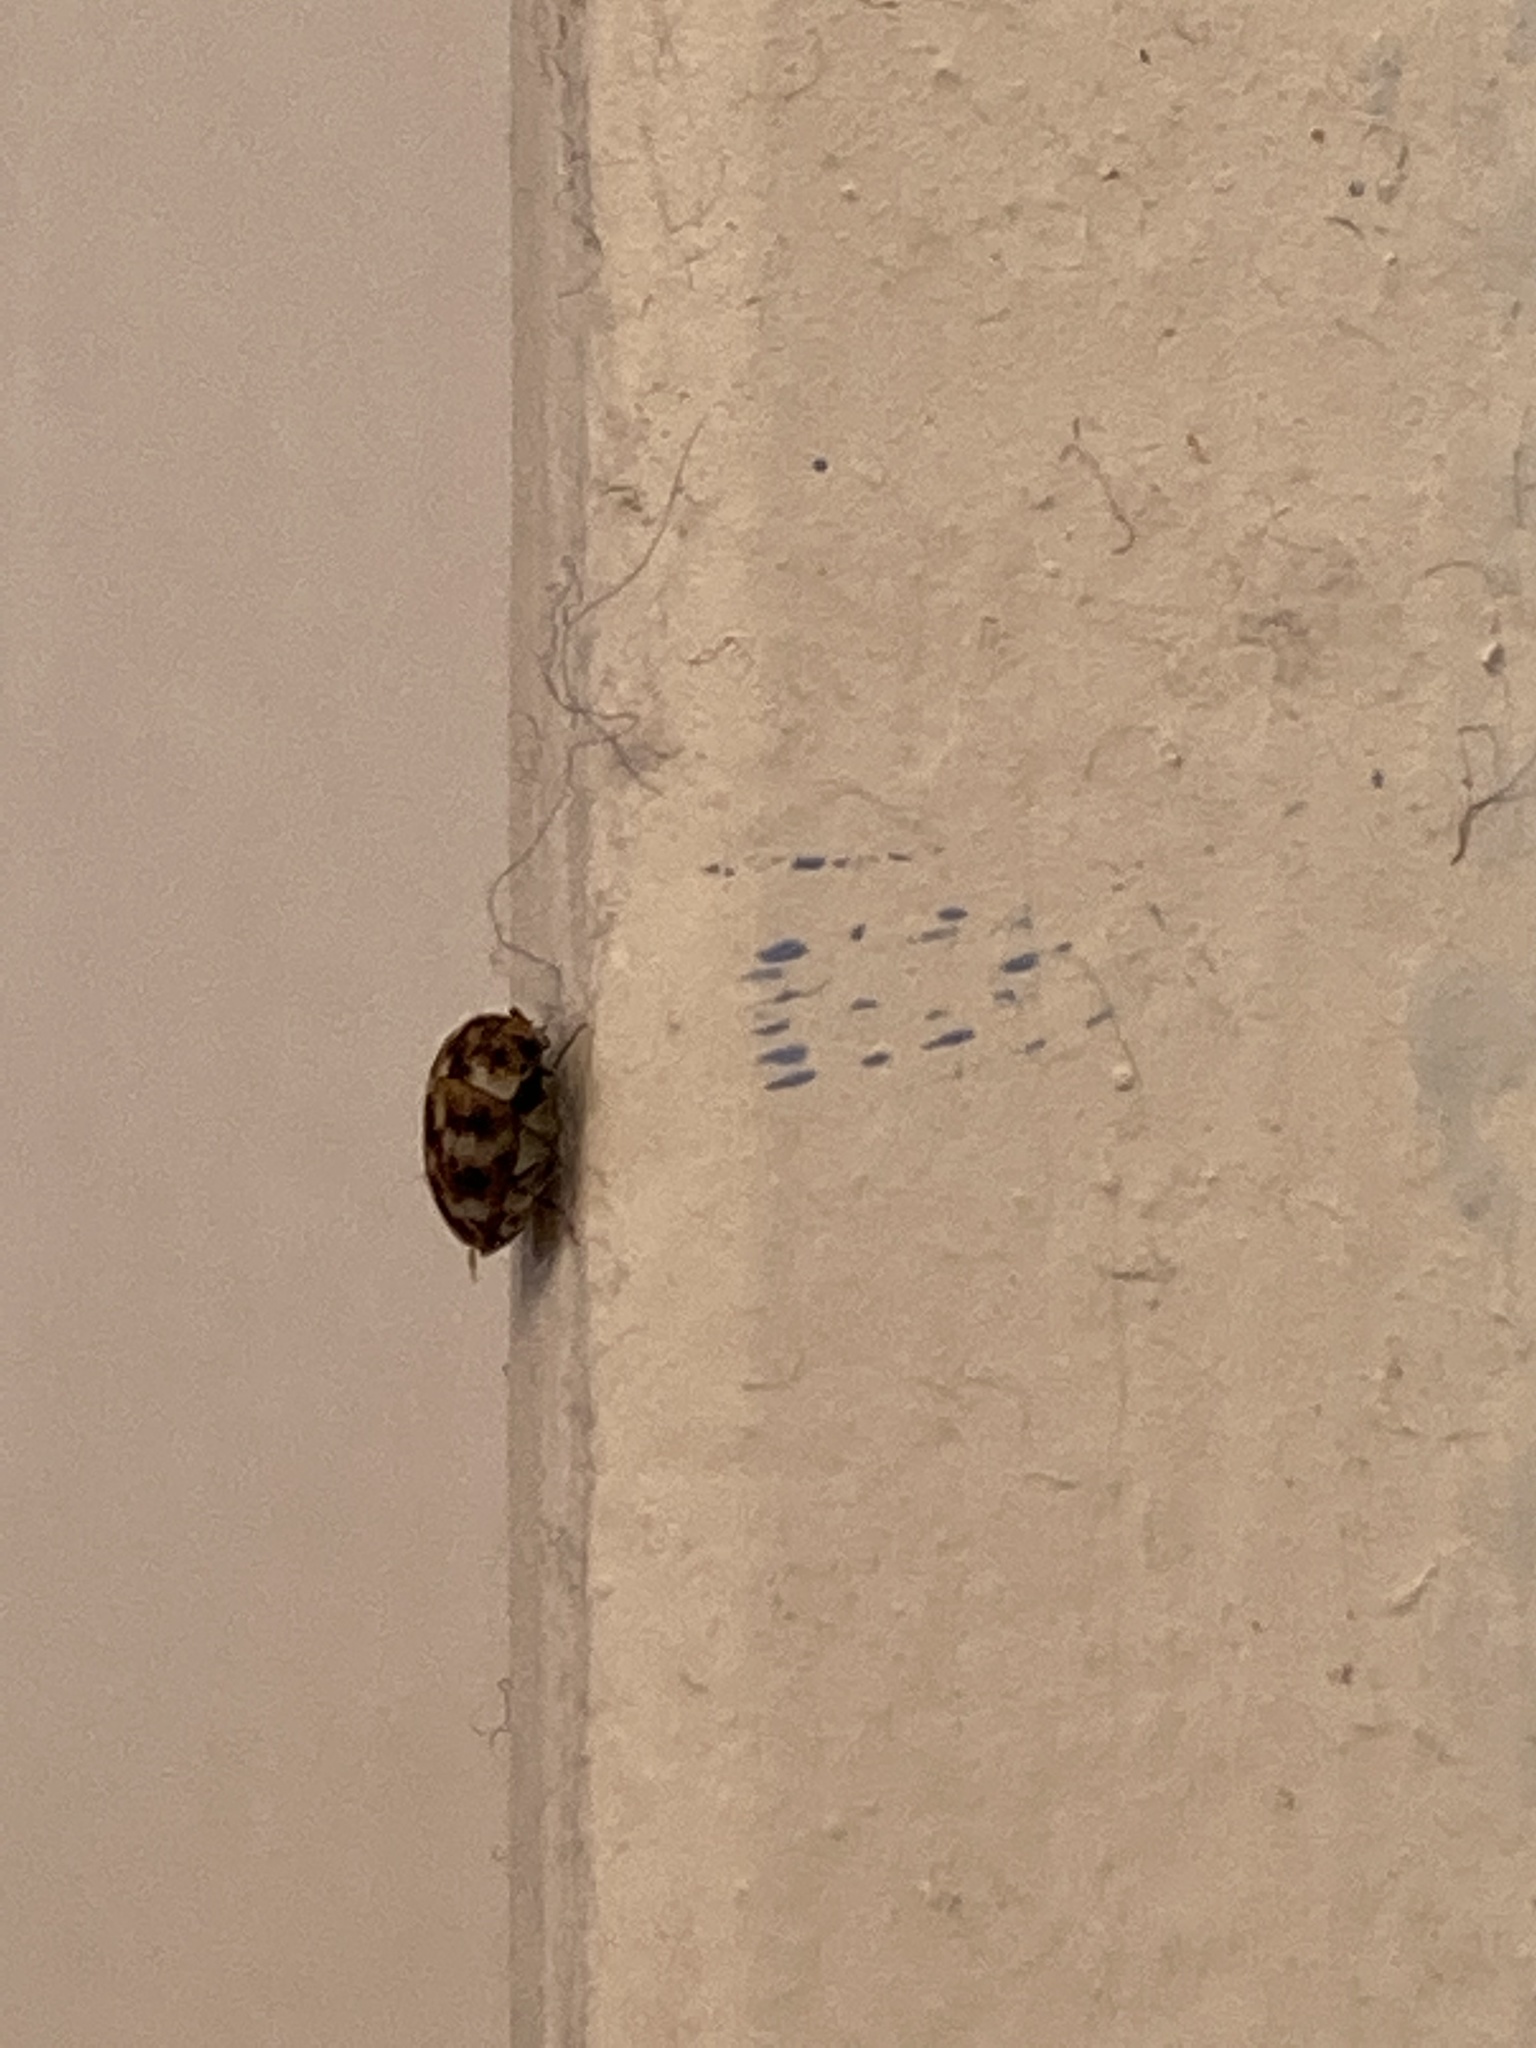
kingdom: Animalia
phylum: Arthropoda
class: Insecta
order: Coleoptera
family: Dermestidae
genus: Anthrenus
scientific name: Anthrenus verbasci
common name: Varied carpet beetle
